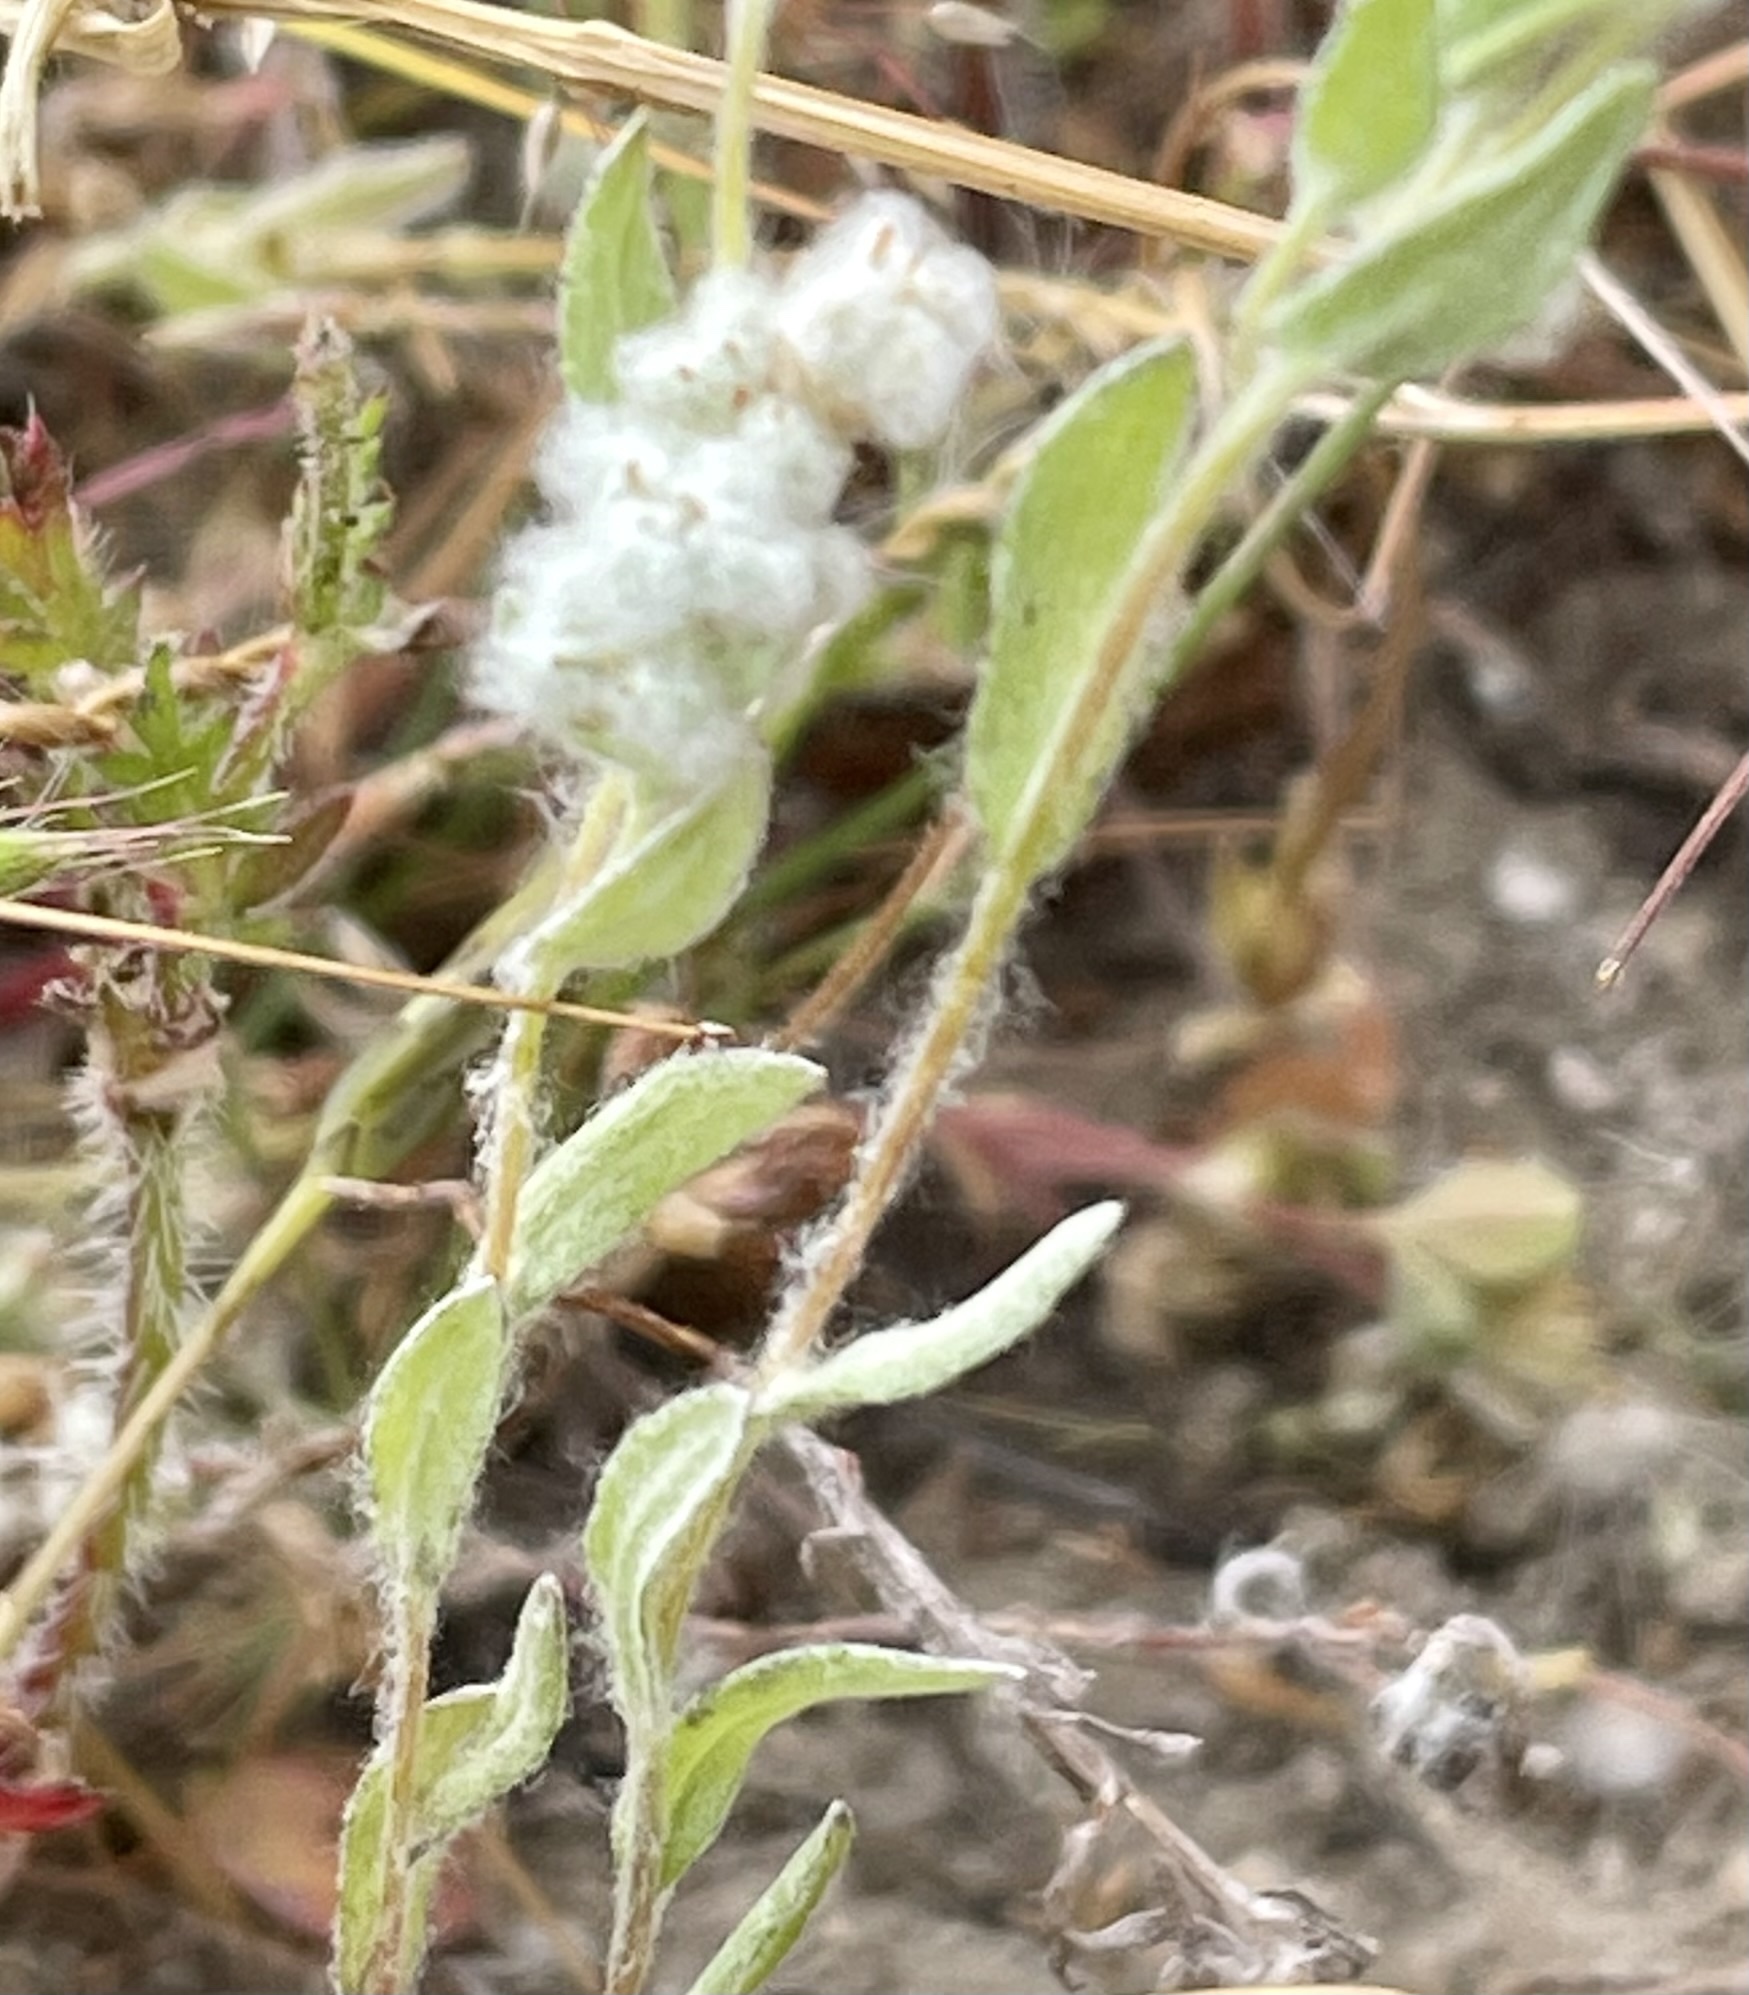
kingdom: Plantae
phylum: Tracheophyta
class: Magnoliopsida
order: Asterales
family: Asteraceae
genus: Bombycilaena
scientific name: Bombycilaena californica
